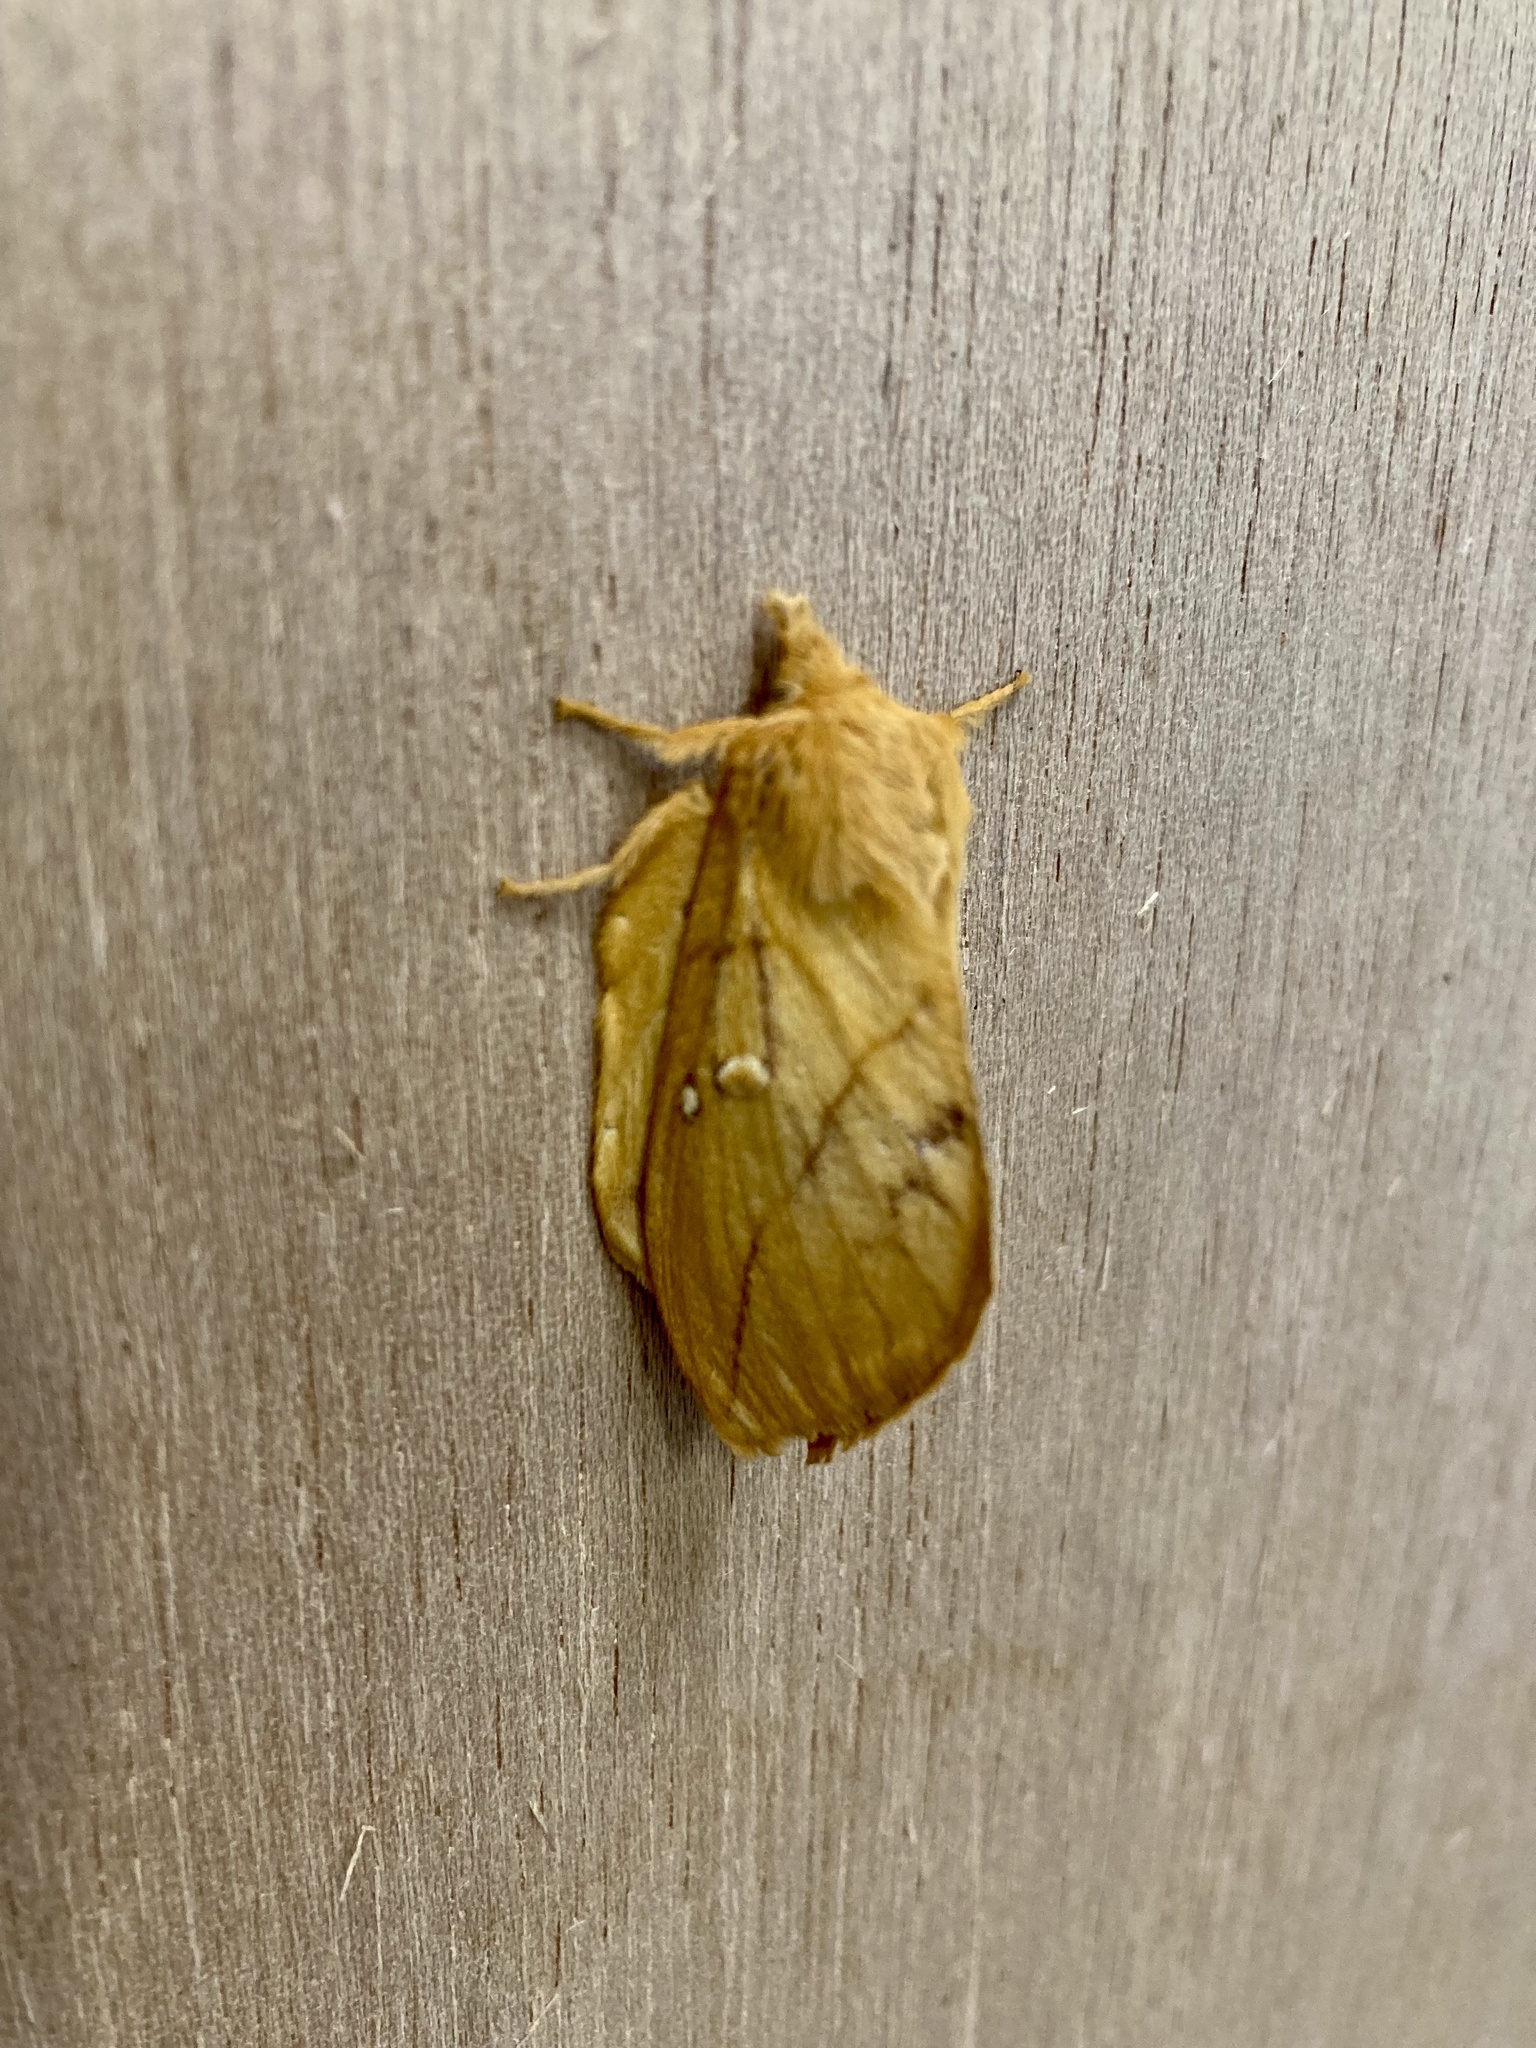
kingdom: Animalia
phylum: Arthropoda
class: Insecta
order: Lepidoptera
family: Lasiocampidae
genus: Euthrix
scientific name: Euthrix potatoria
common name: Drinker
